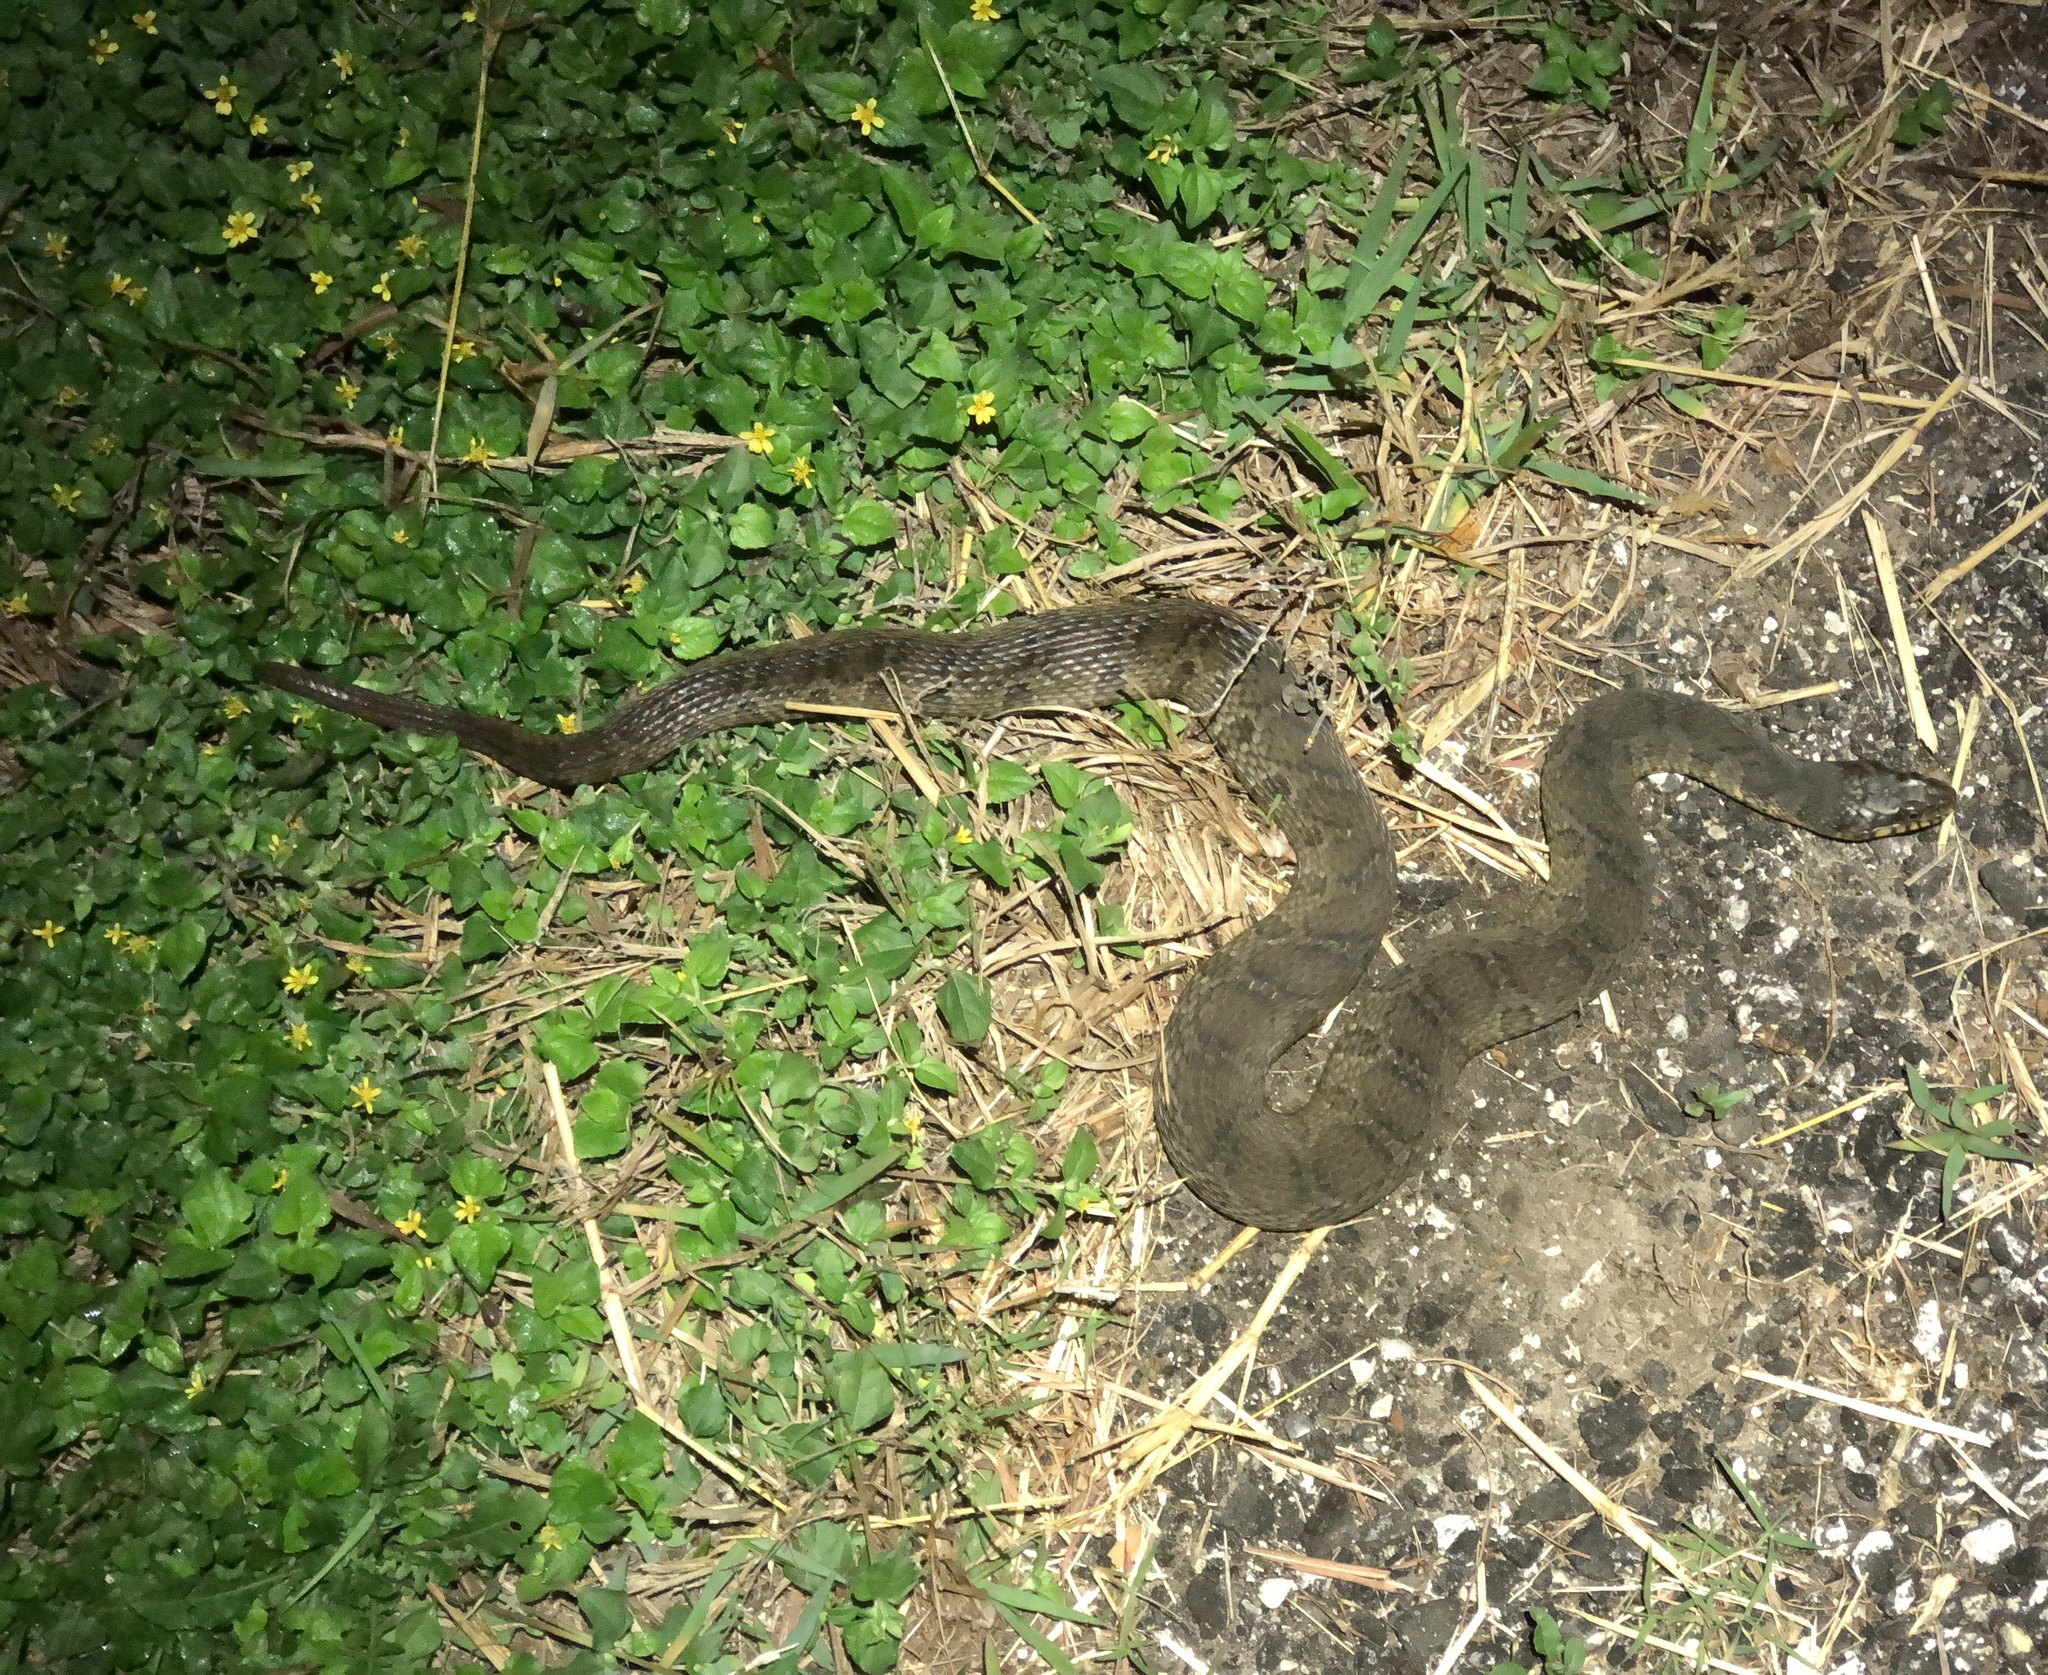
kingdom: Animalia
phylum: Chordata
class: Squamata
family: Colubridae
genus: Nerodia
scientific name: Nerodia erythrogaster
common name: Plainbelly water snake
